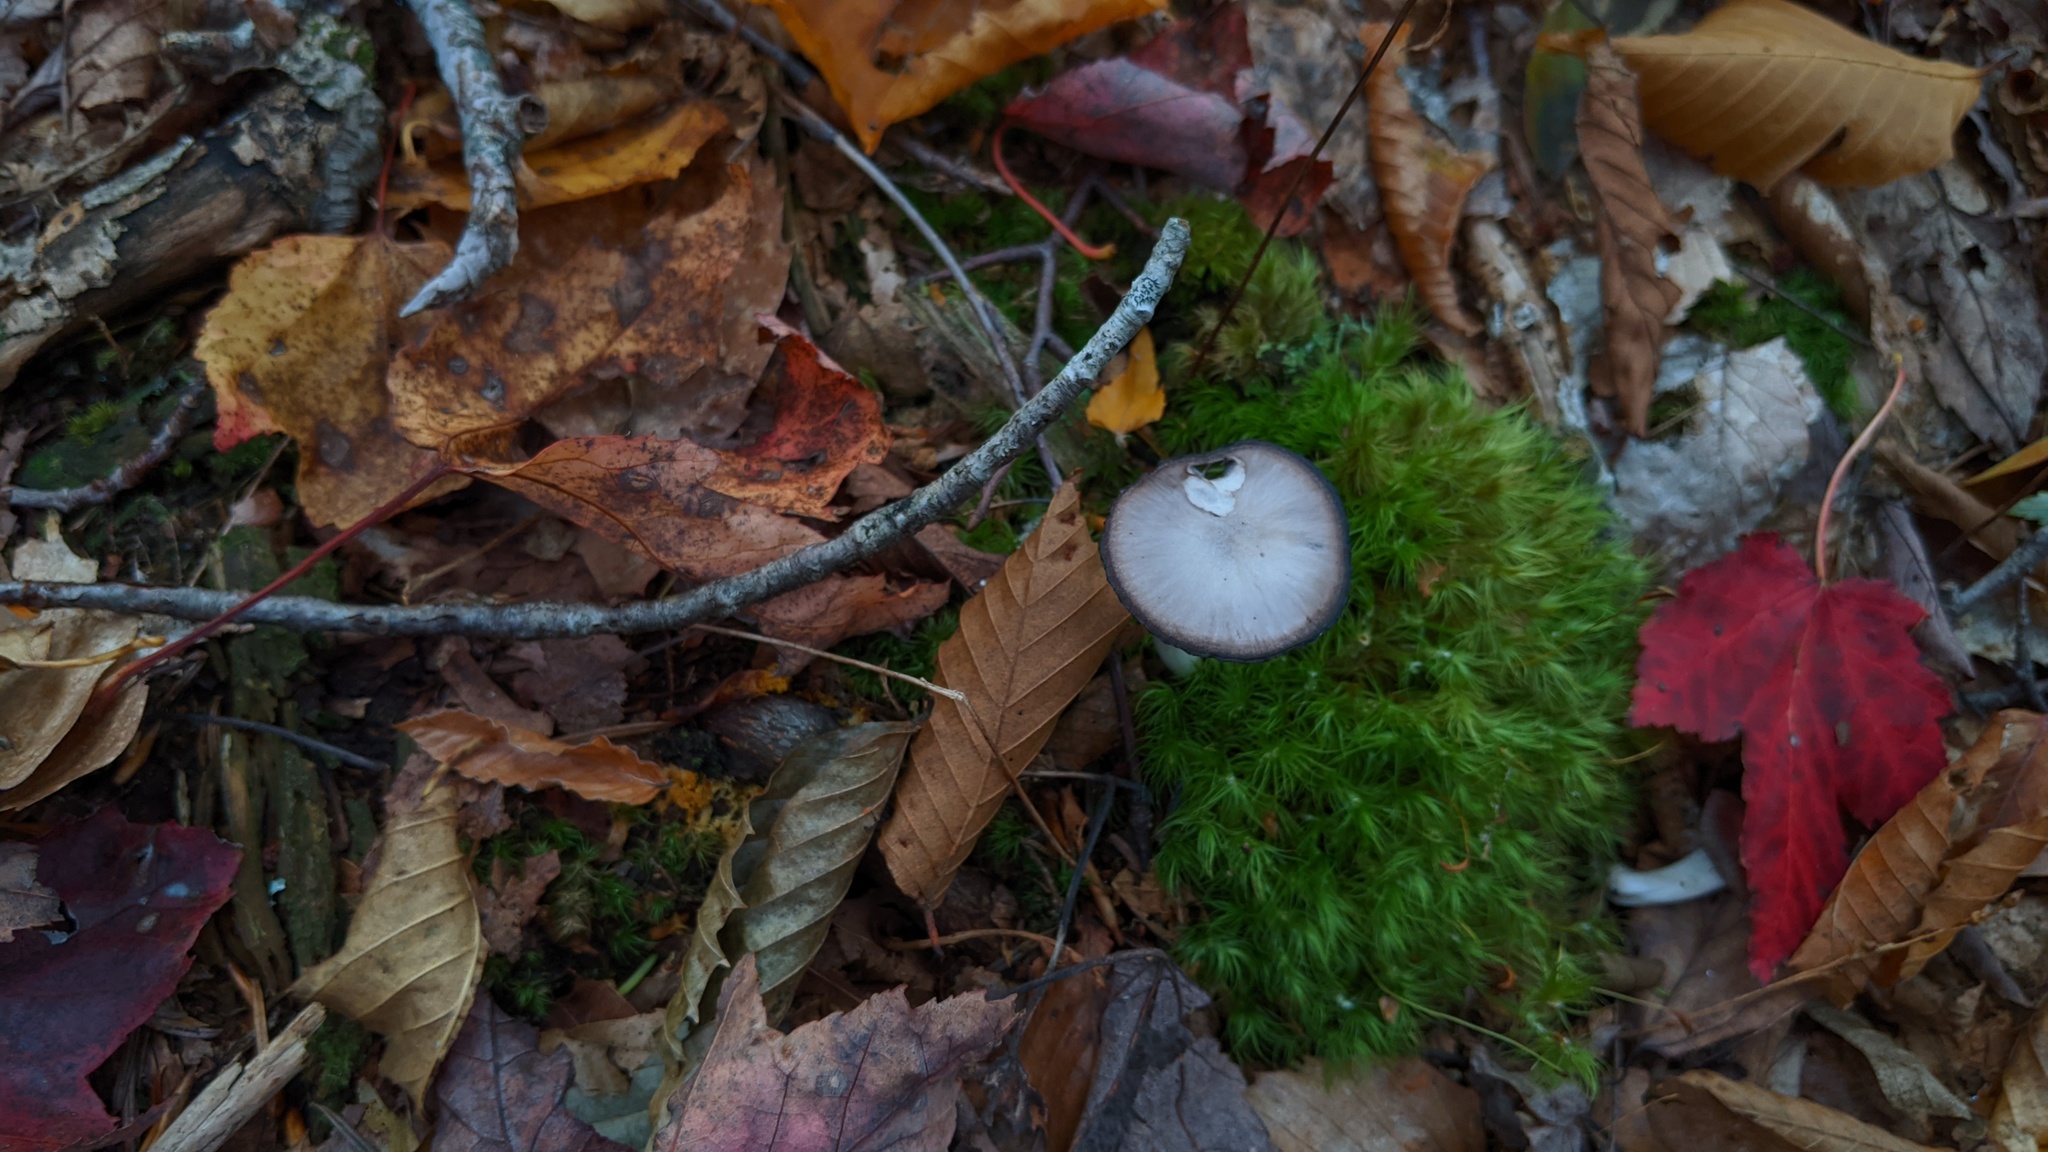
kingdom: Fungi
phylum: Basidiomycota
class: Agaricomycetes
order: Agaricales
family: Hygrophoraceae
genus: Cuphophyllus
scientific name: Cuphophyllus lacmus
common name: Grey waxcap
